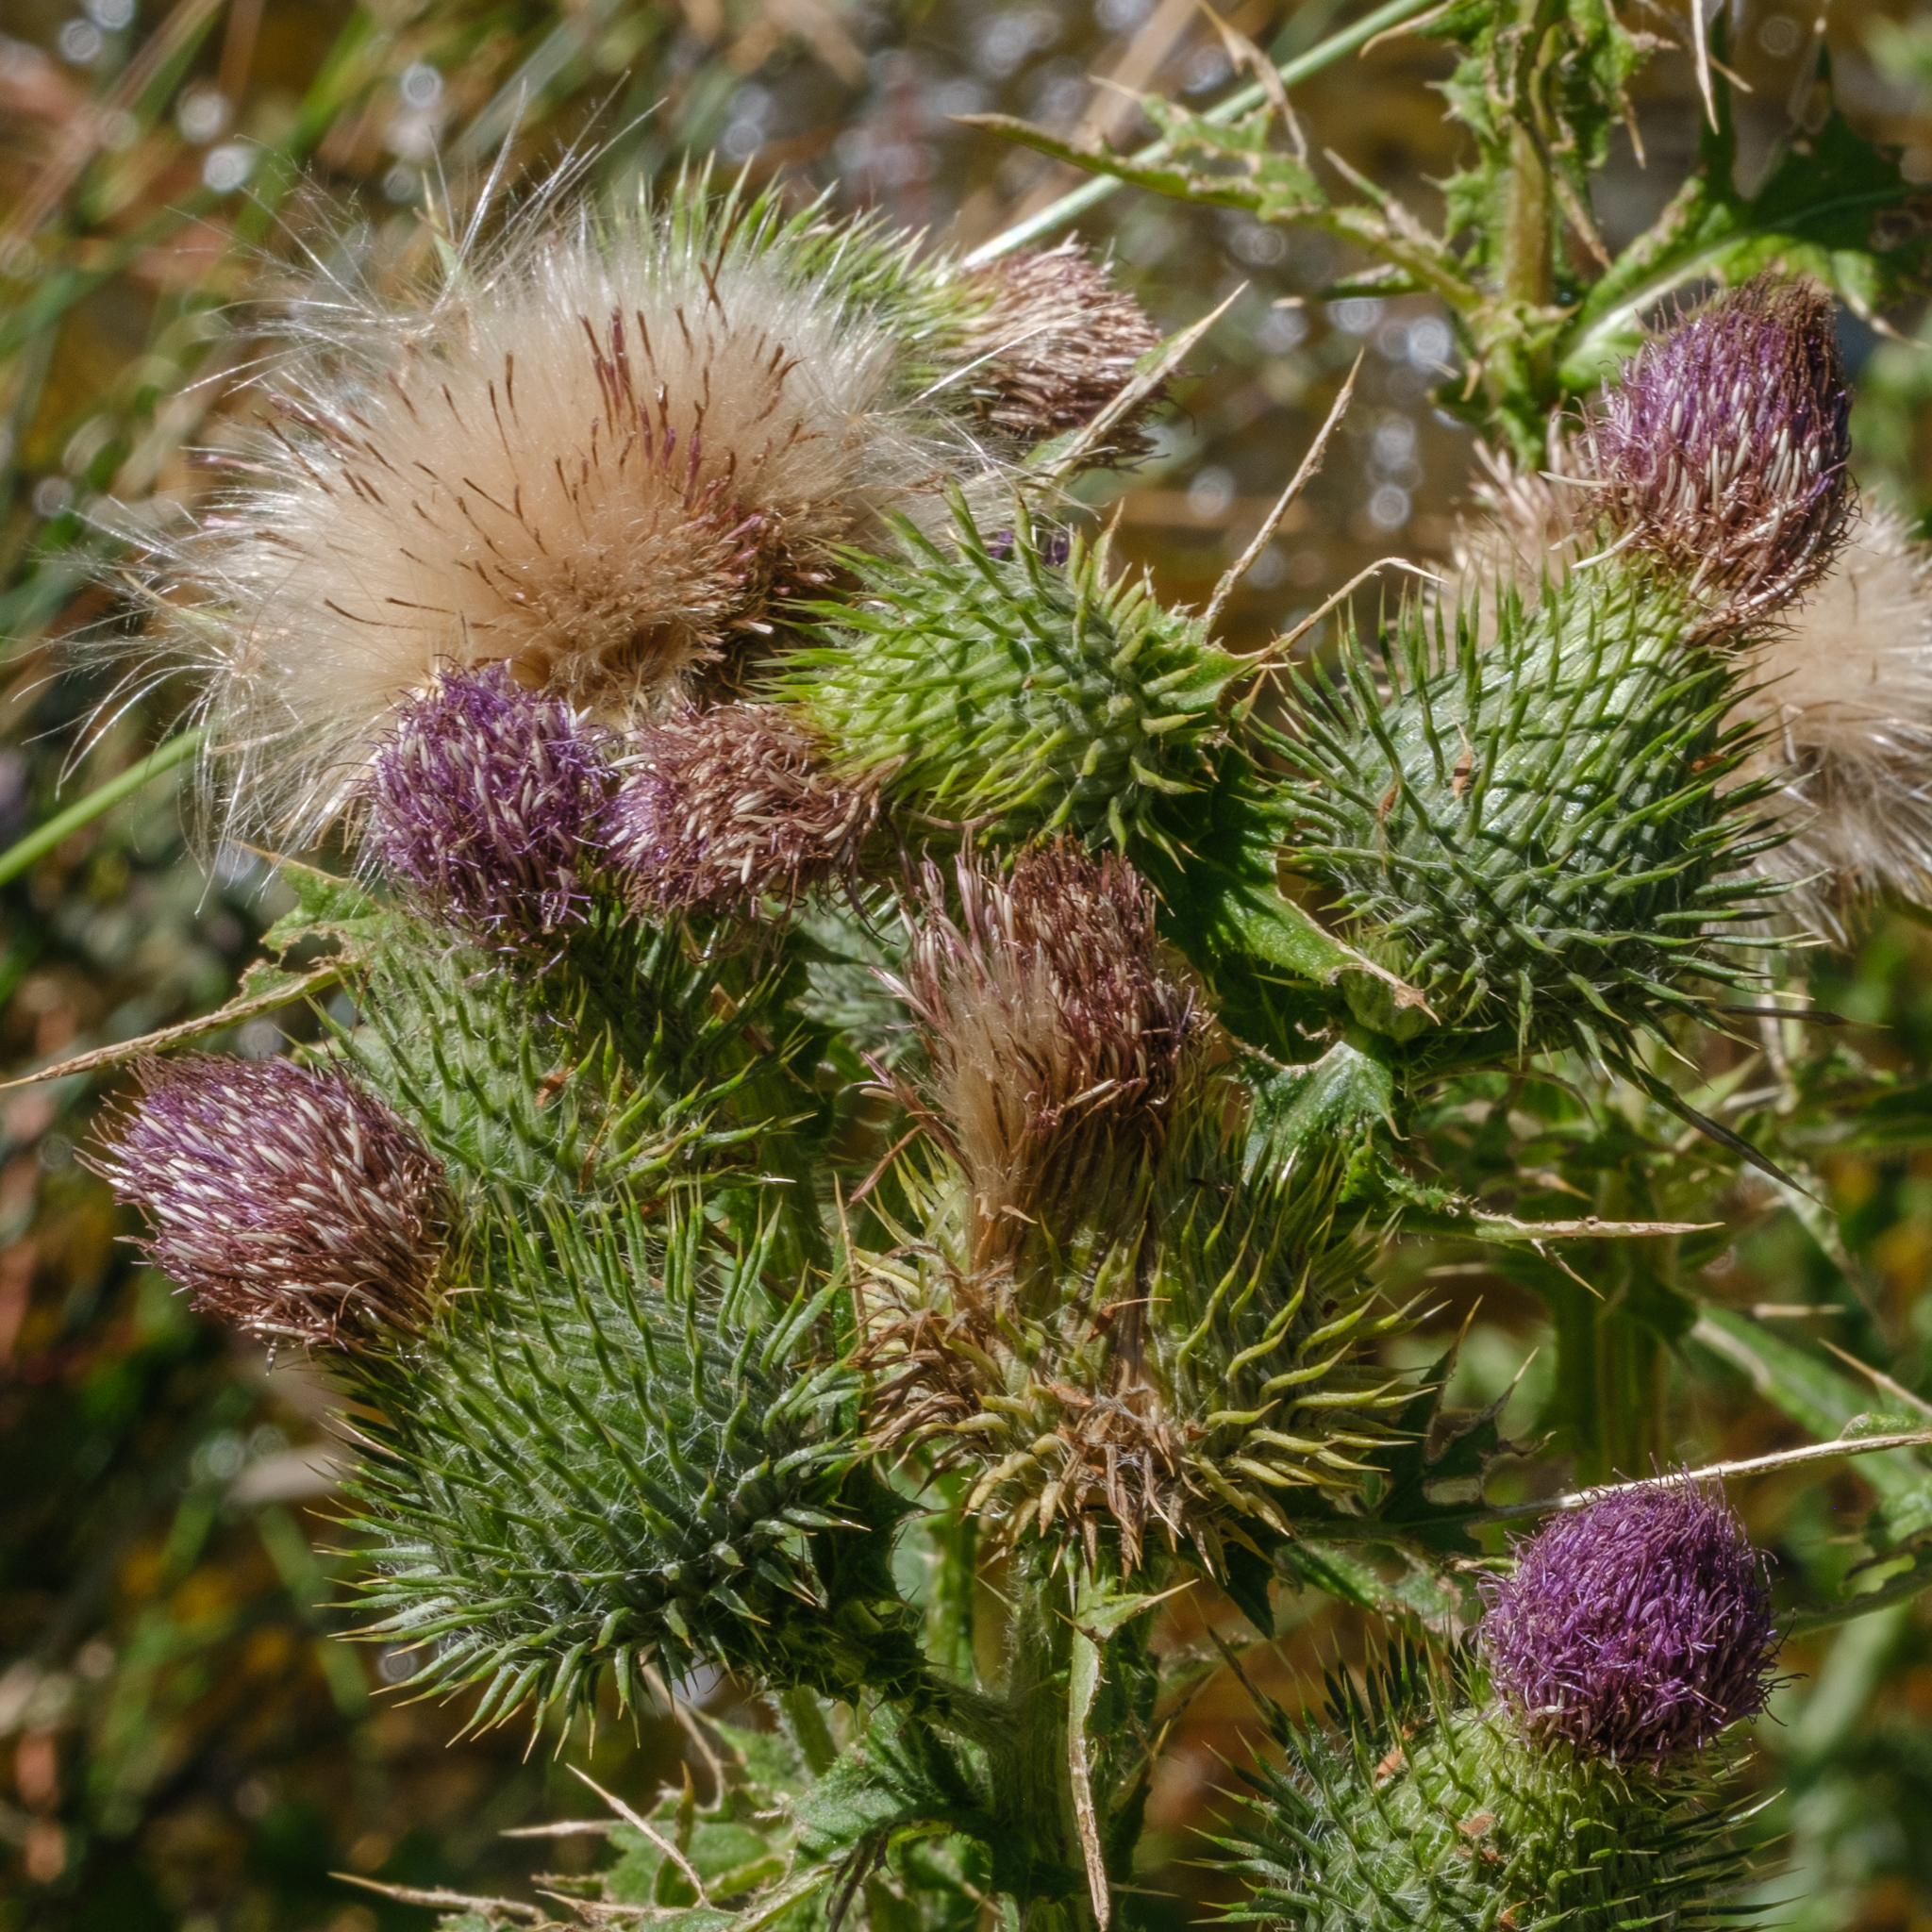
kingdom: Plantae
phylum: Tracheophyta
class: Magnoliopsida
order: Asterales
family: Asteraceae
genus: Cirsium
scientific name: Cirsium vulgare
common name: Bull thistle
